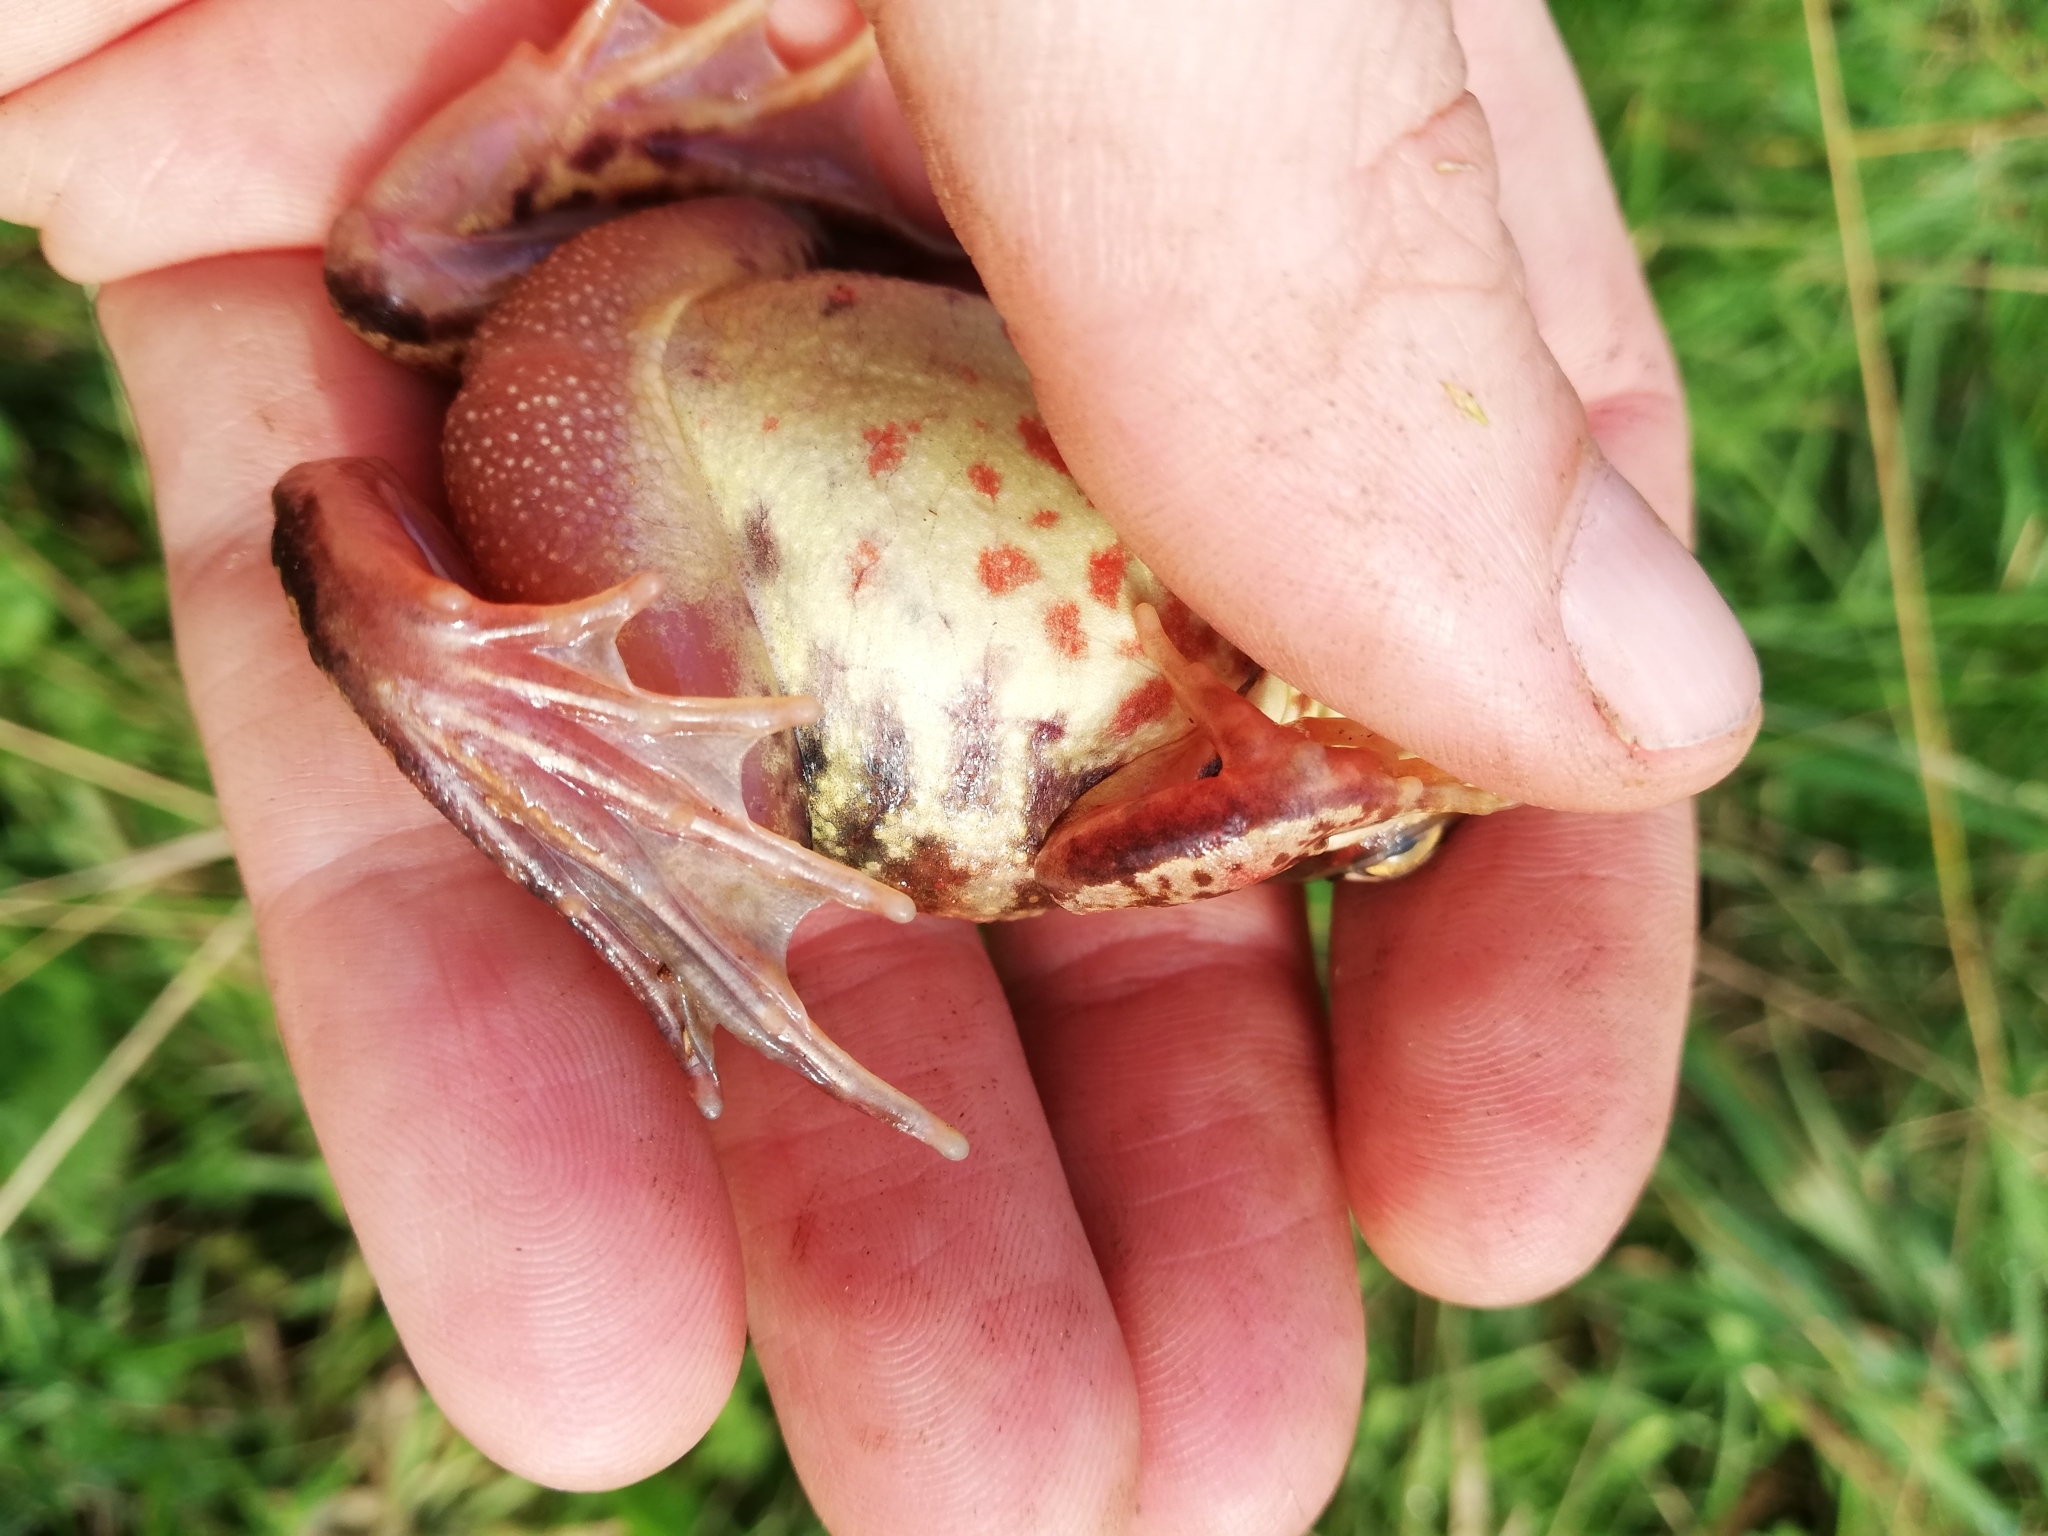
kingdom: Animalia
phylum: Chordata
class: Amphibia
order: Anura
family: Ranidae
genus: Rana
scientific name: Rana temporaria
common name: Common frog
